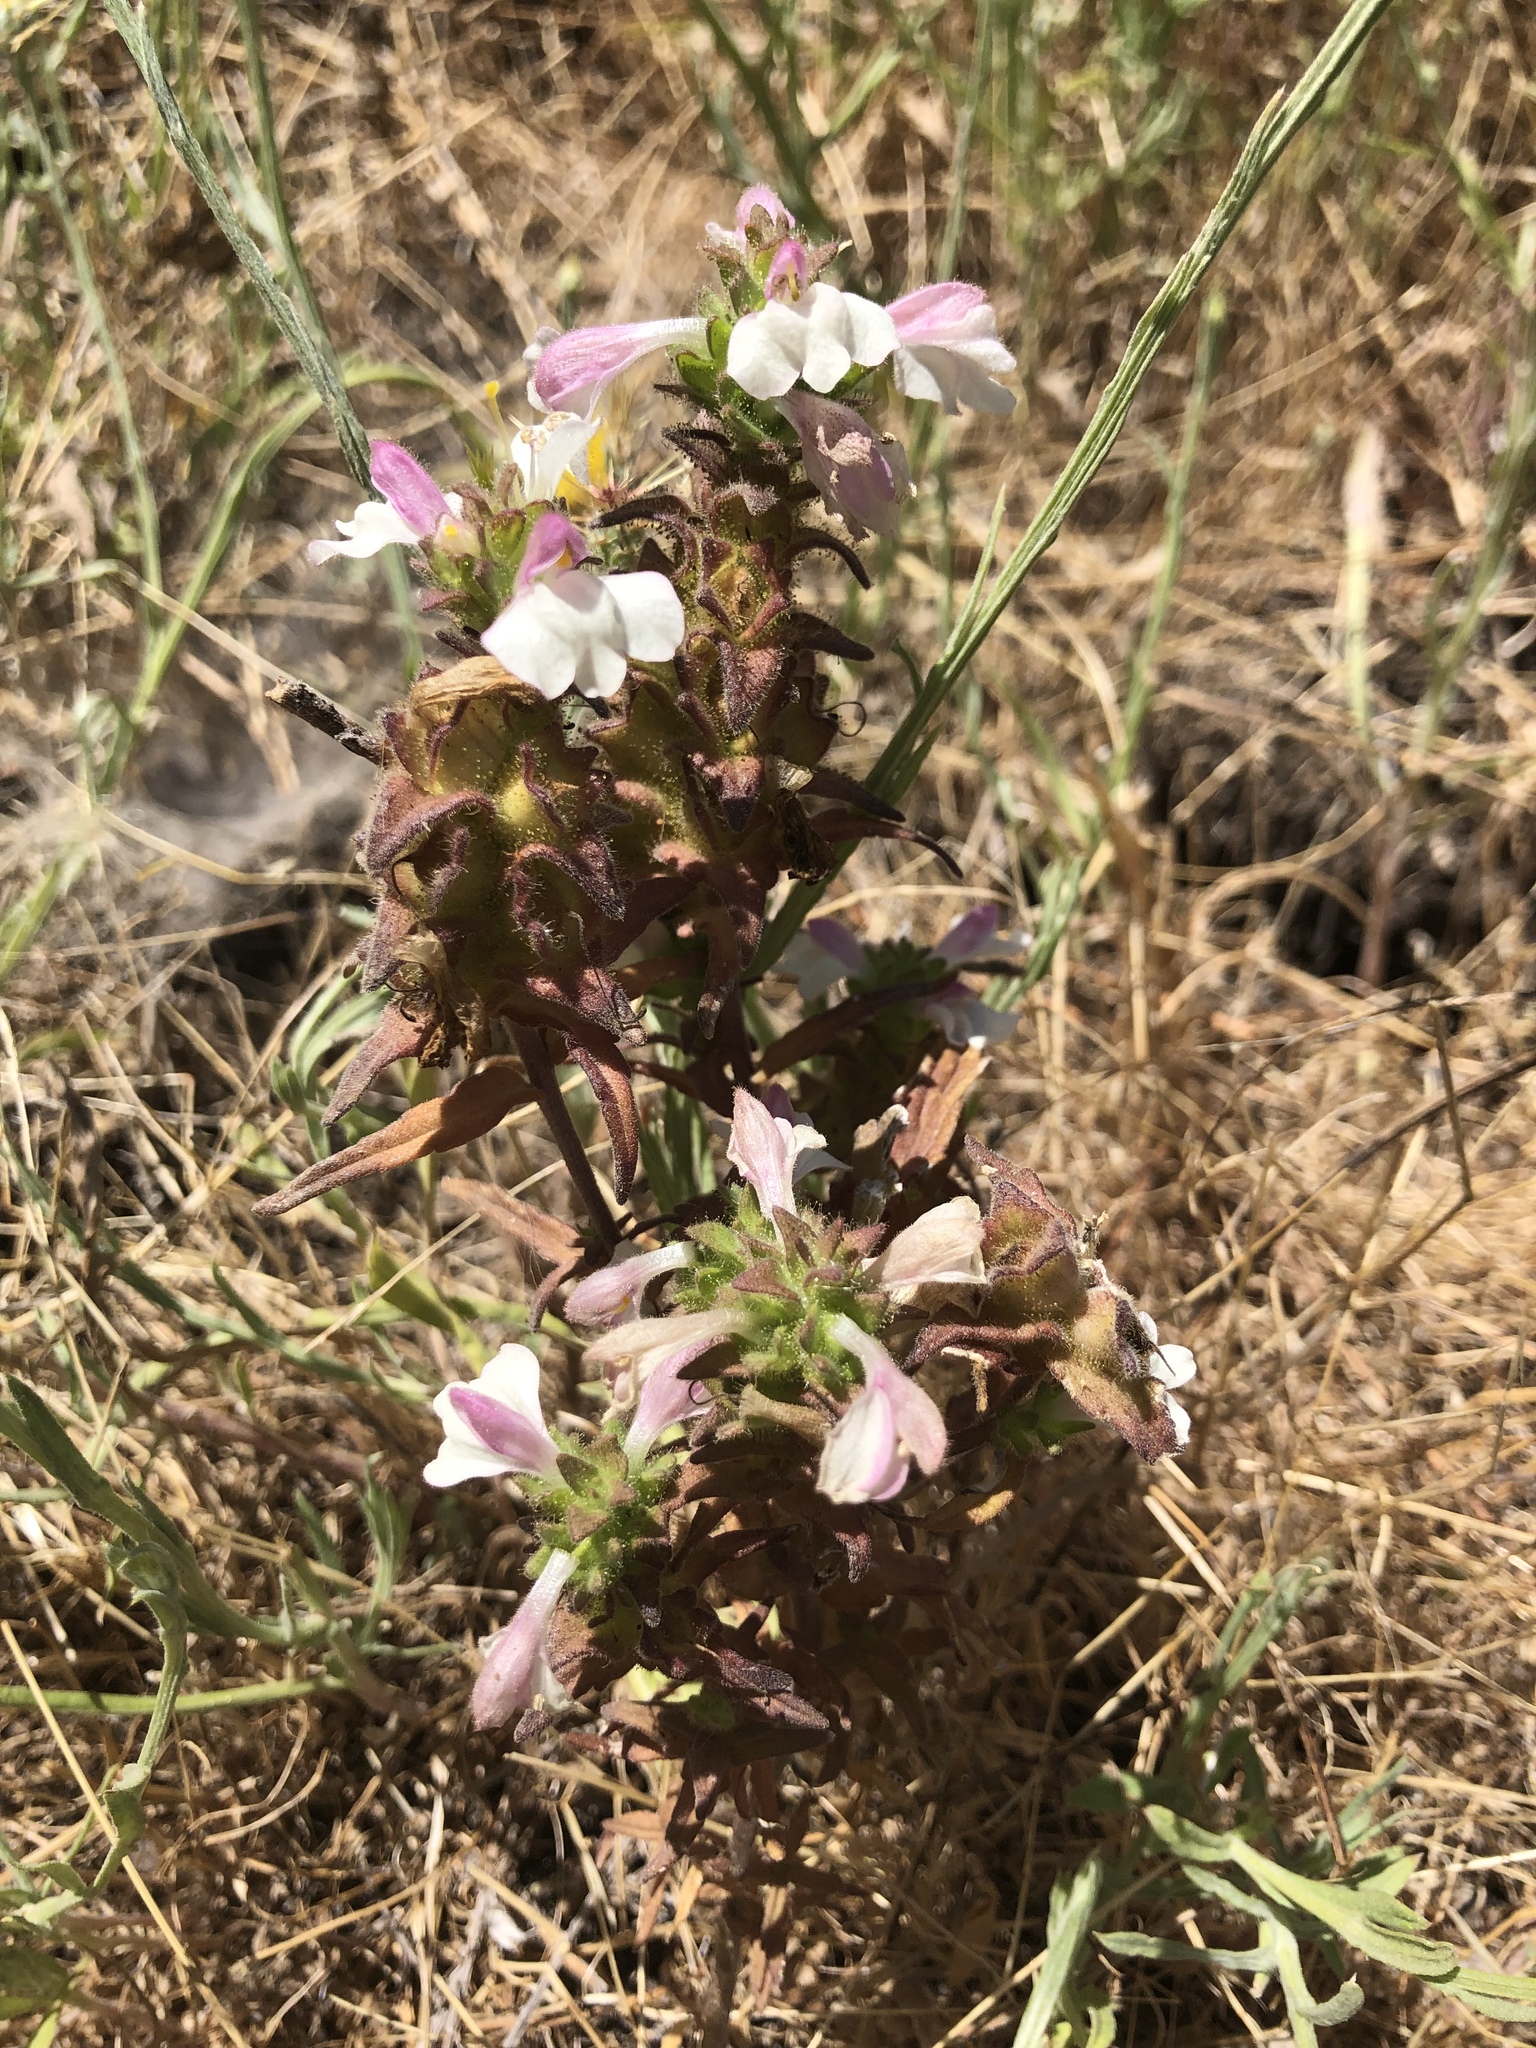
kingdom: Plantae
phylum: Tracheophyta
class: Magnoliopsida
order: Lamiales
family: Orobanchaceae
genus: Bellardia
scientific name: Bellardia trixago
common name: Mediterranean lineseed
